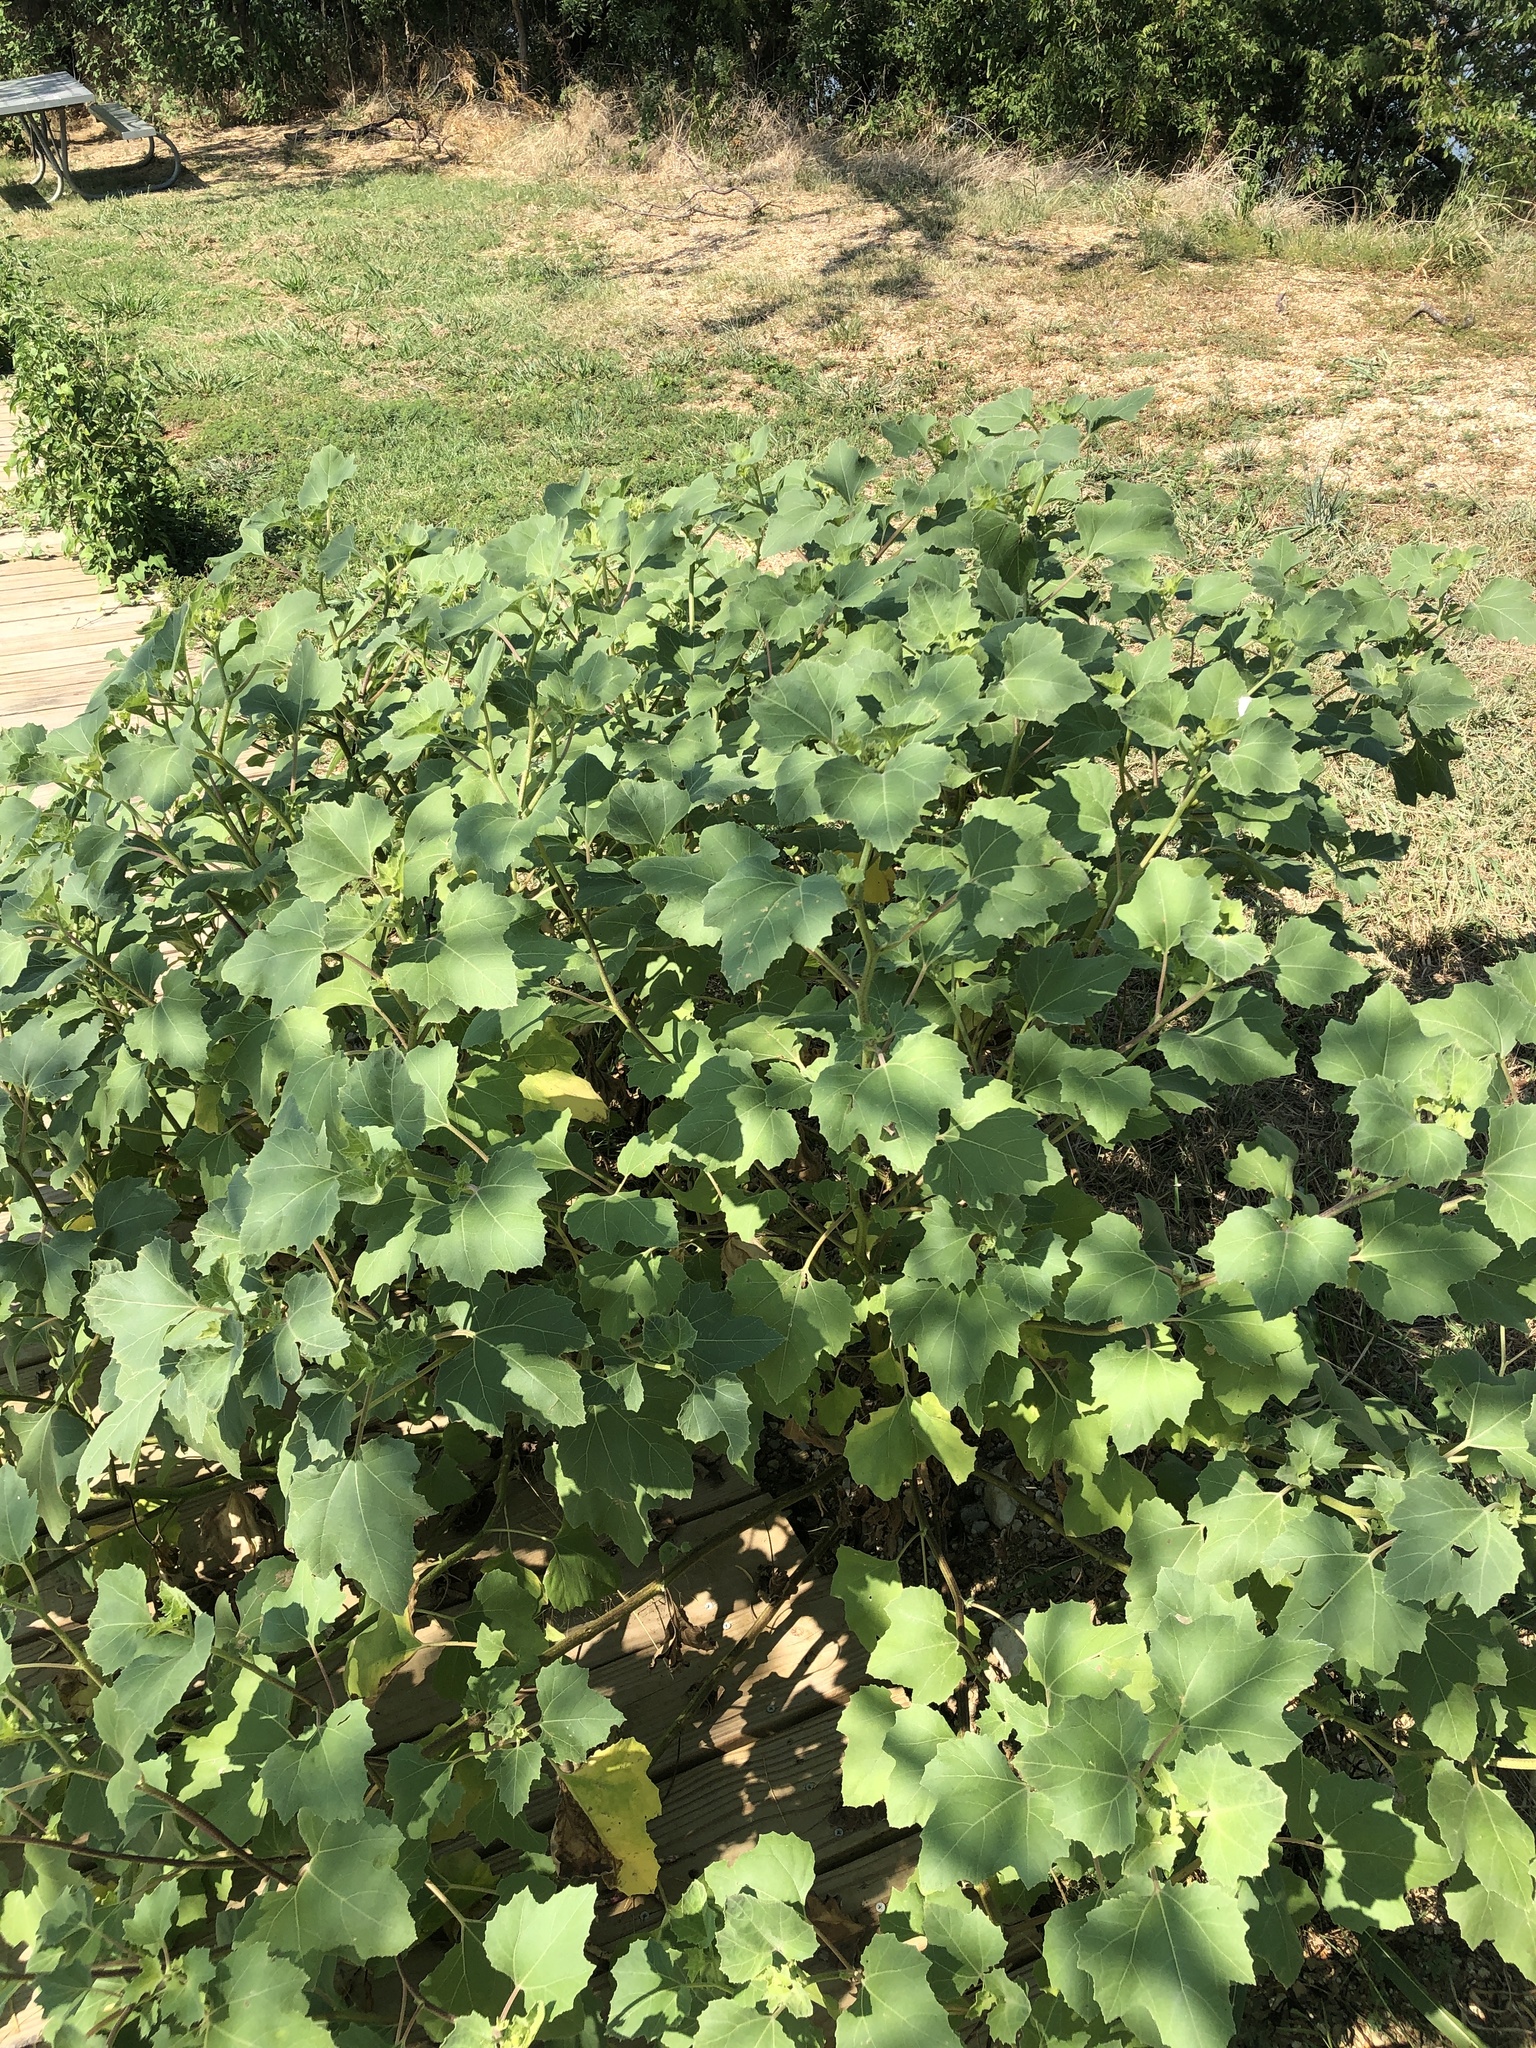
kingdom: Plantae
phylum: Tracheophyta
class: Magnoliopsida
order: Asterales
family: Asteraceae
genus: Xanthium
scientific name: Xanthium strumarium
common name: Rough cocklebur
